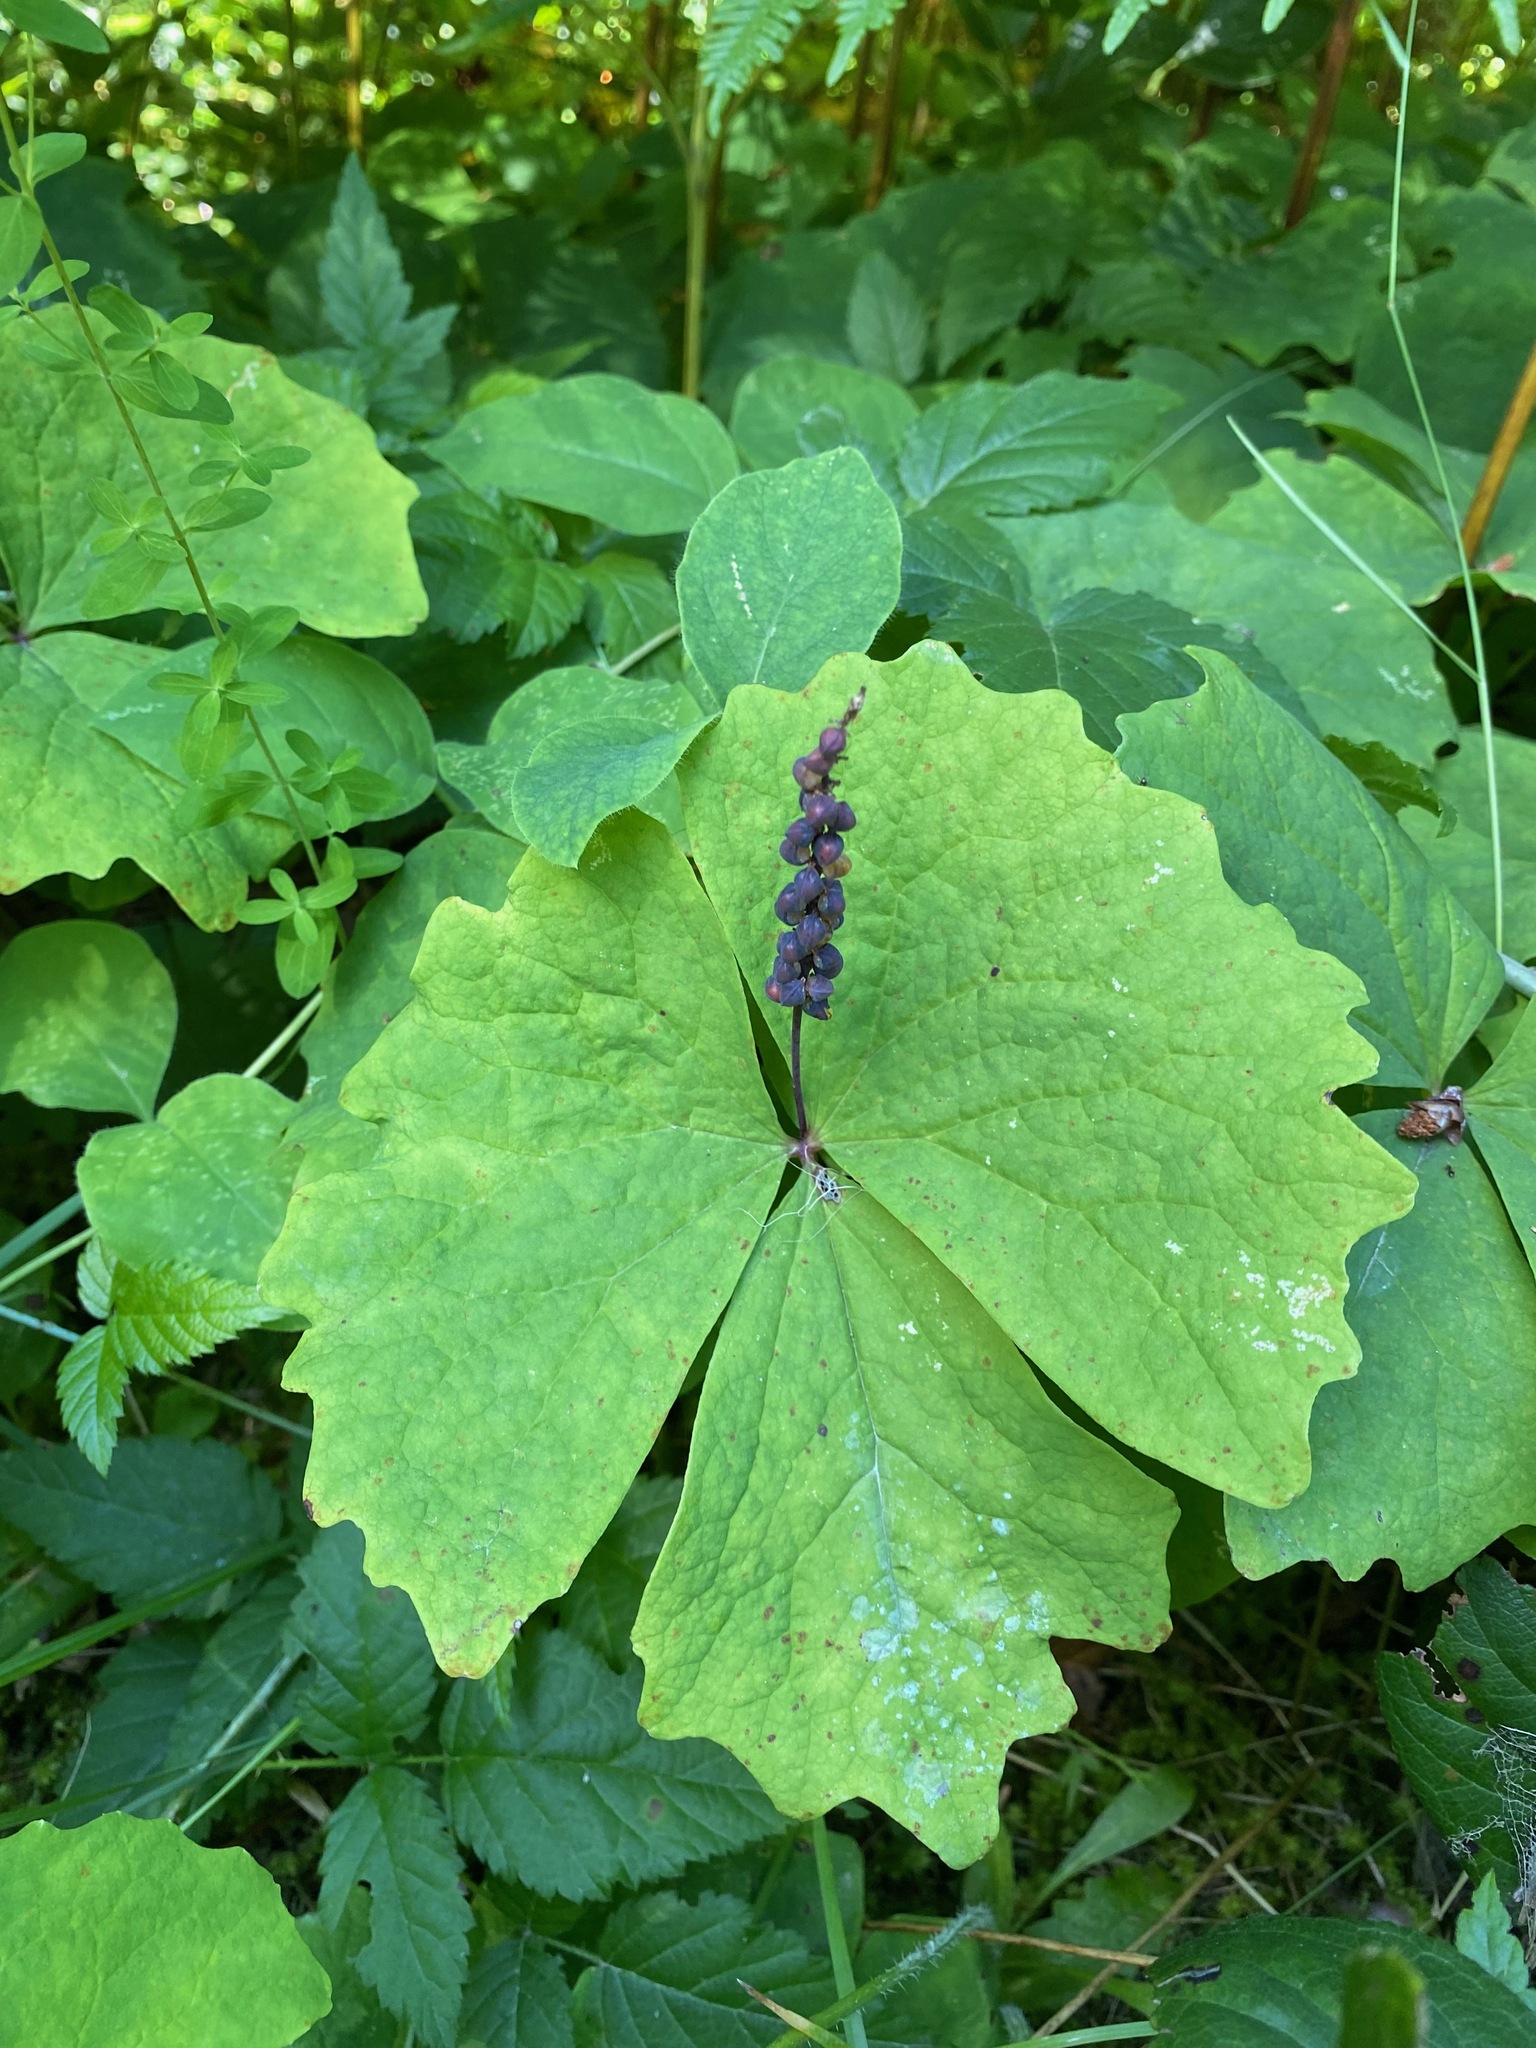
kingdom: Plantae
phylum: Tracheophyta
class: Magnoliopsida
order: Ranunculales
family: Berberidaceae
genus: Achlys
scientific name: Achlys triphylla
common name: Vanilla-leaf
